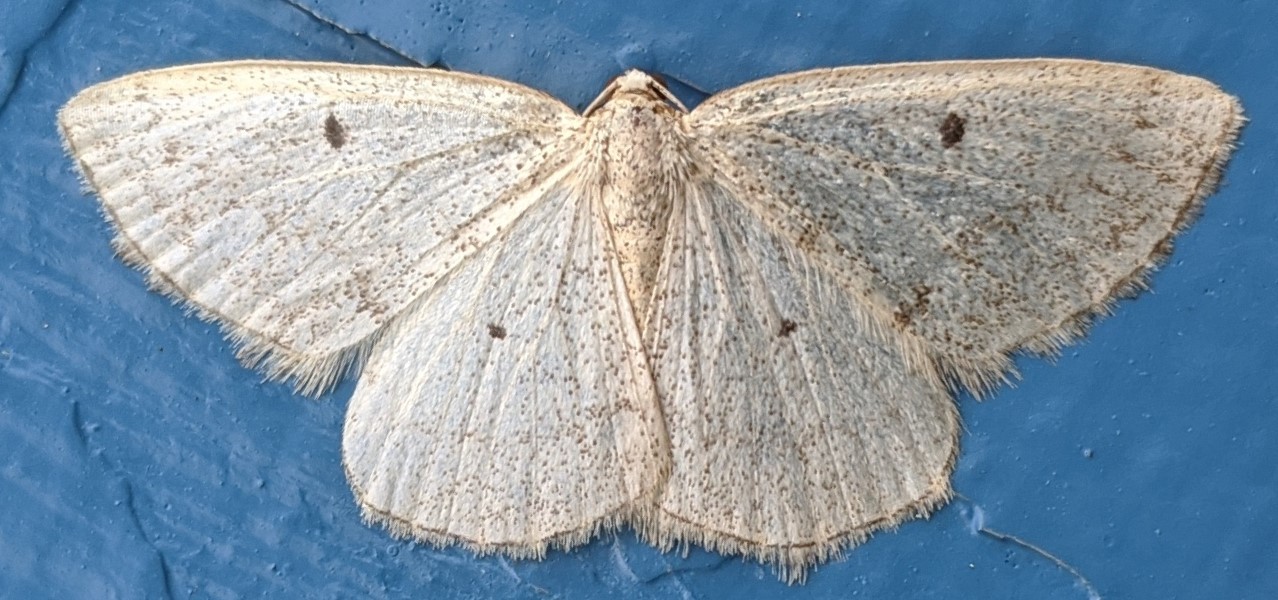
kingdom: Animalia
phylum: Arthropoda
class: Insecta
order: Lepidoptera
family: Geometridae
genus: Lomographa
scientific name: Lomographa glomeraria
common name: Gray spring moth
